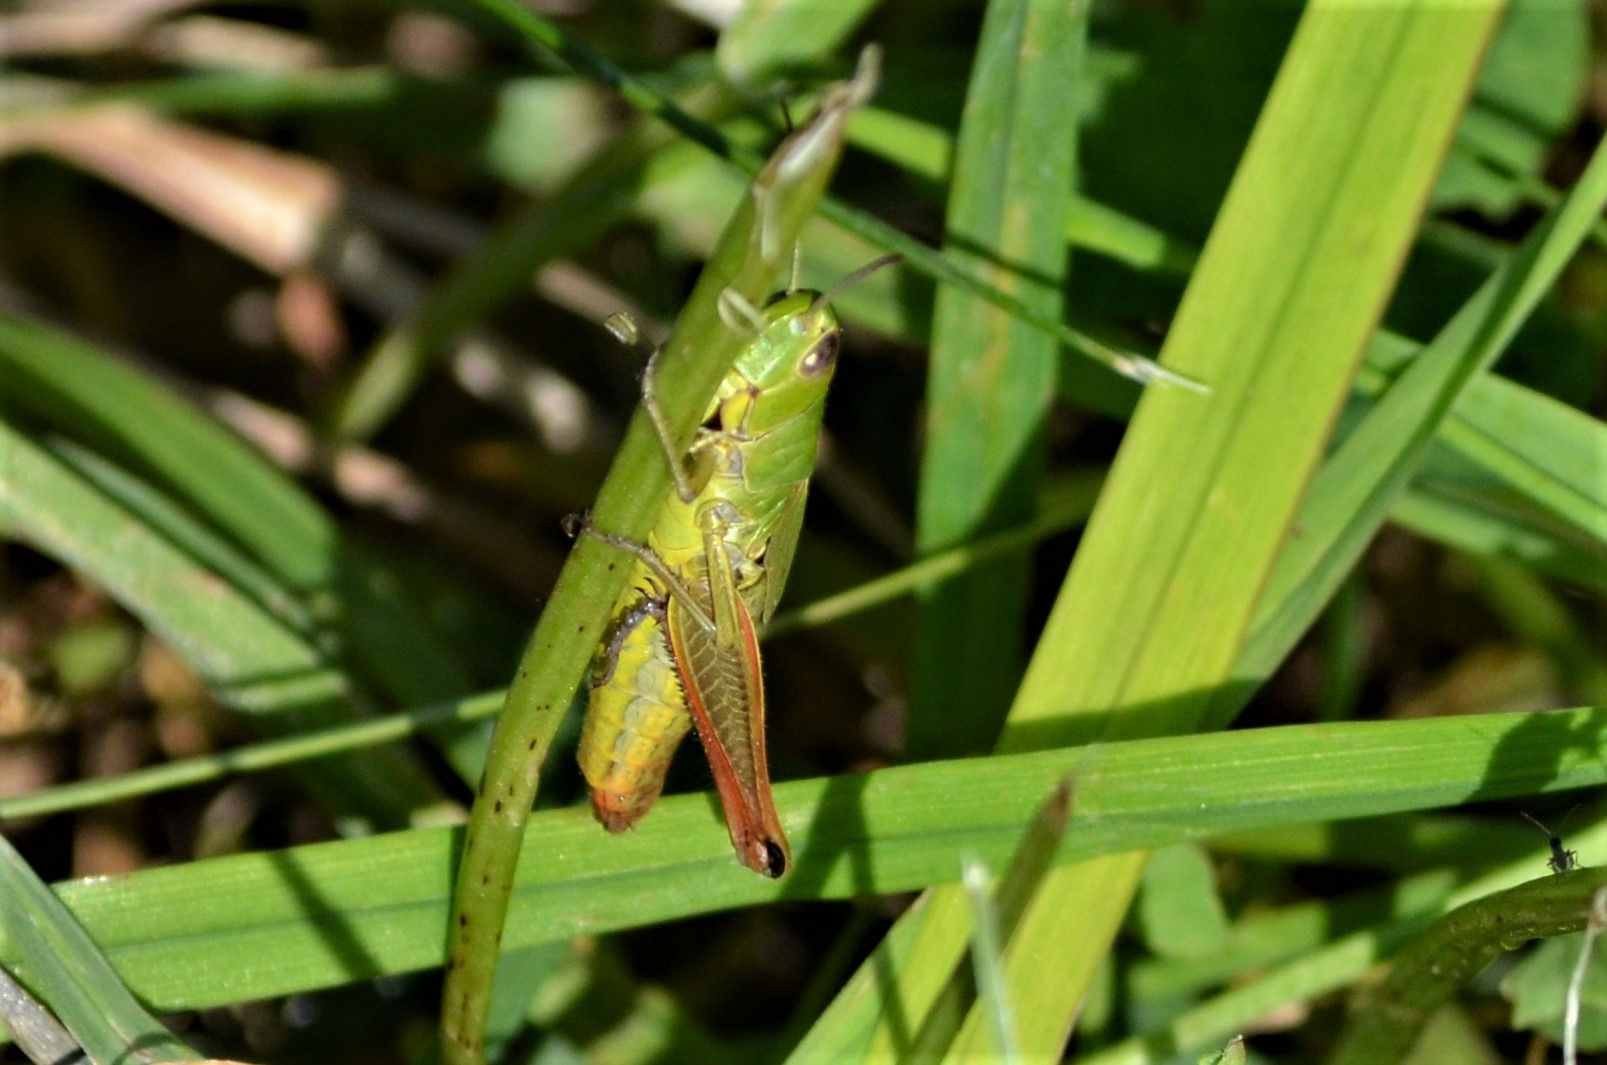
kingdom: Animalia
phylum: Arthropoda
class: Insecta
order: Orthoptera
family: Acrididae
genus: Pseudochorthippus
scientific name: Pseudochorthippus parallelus
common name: Meadow grasshopper
